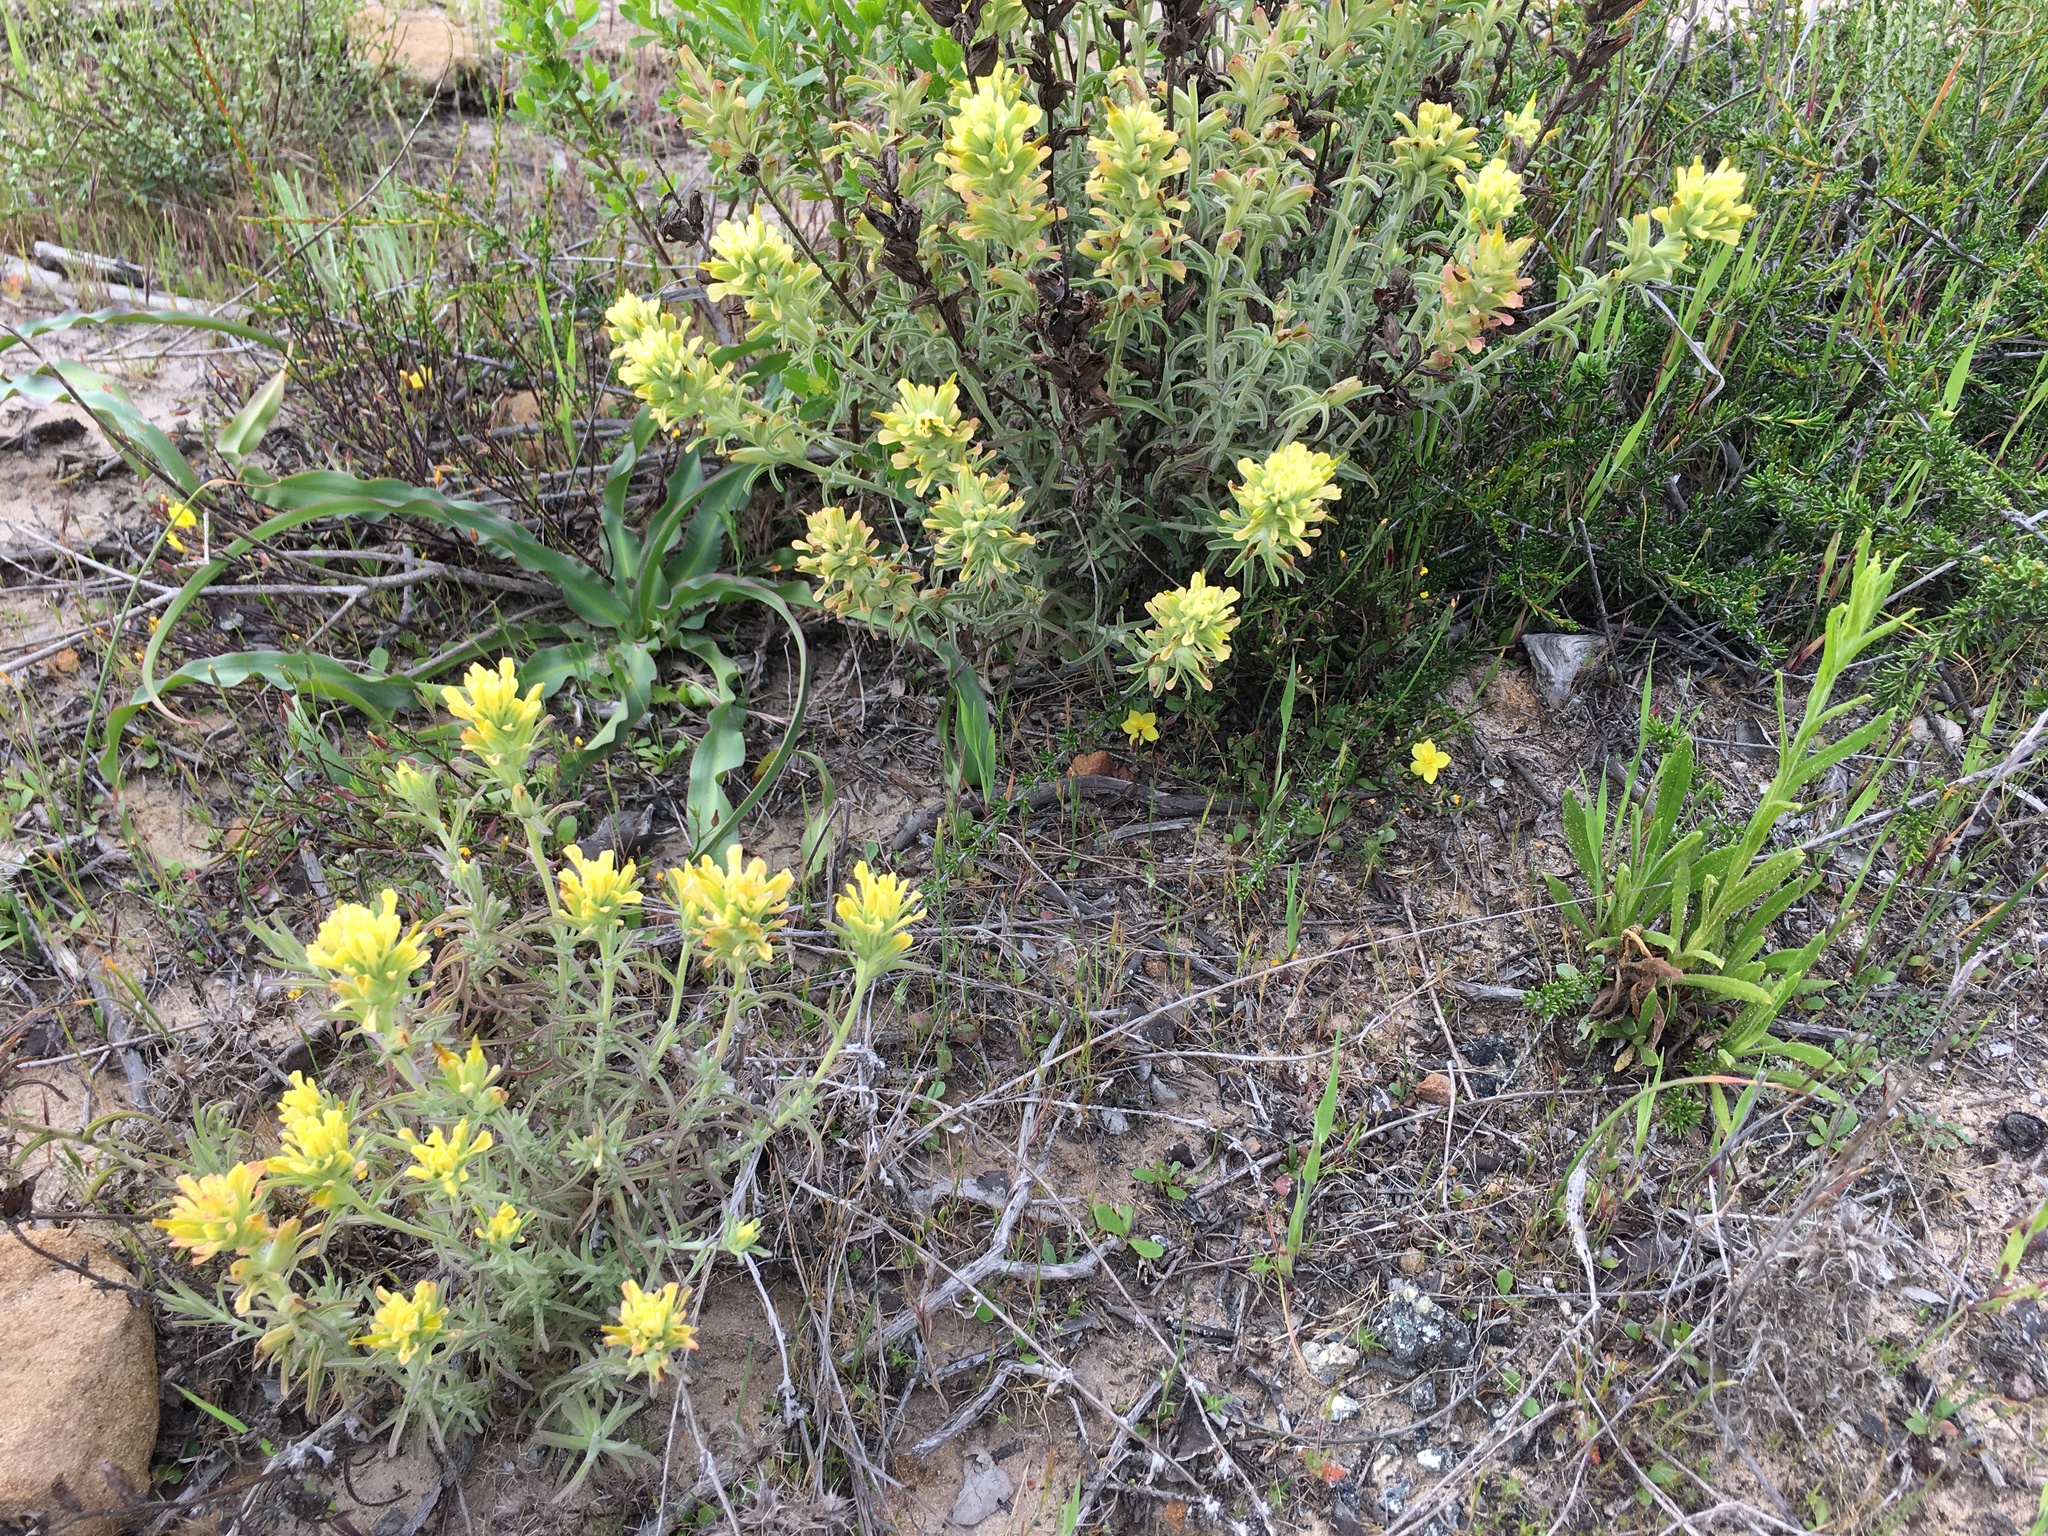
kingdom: Plantae
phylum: Tracheophyta
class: Magnoliopsida
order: Lamiales
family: Orobanchaceae
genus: Castilleja
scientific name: Castilleja foliolosa
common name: Woolly indian paintbrush
